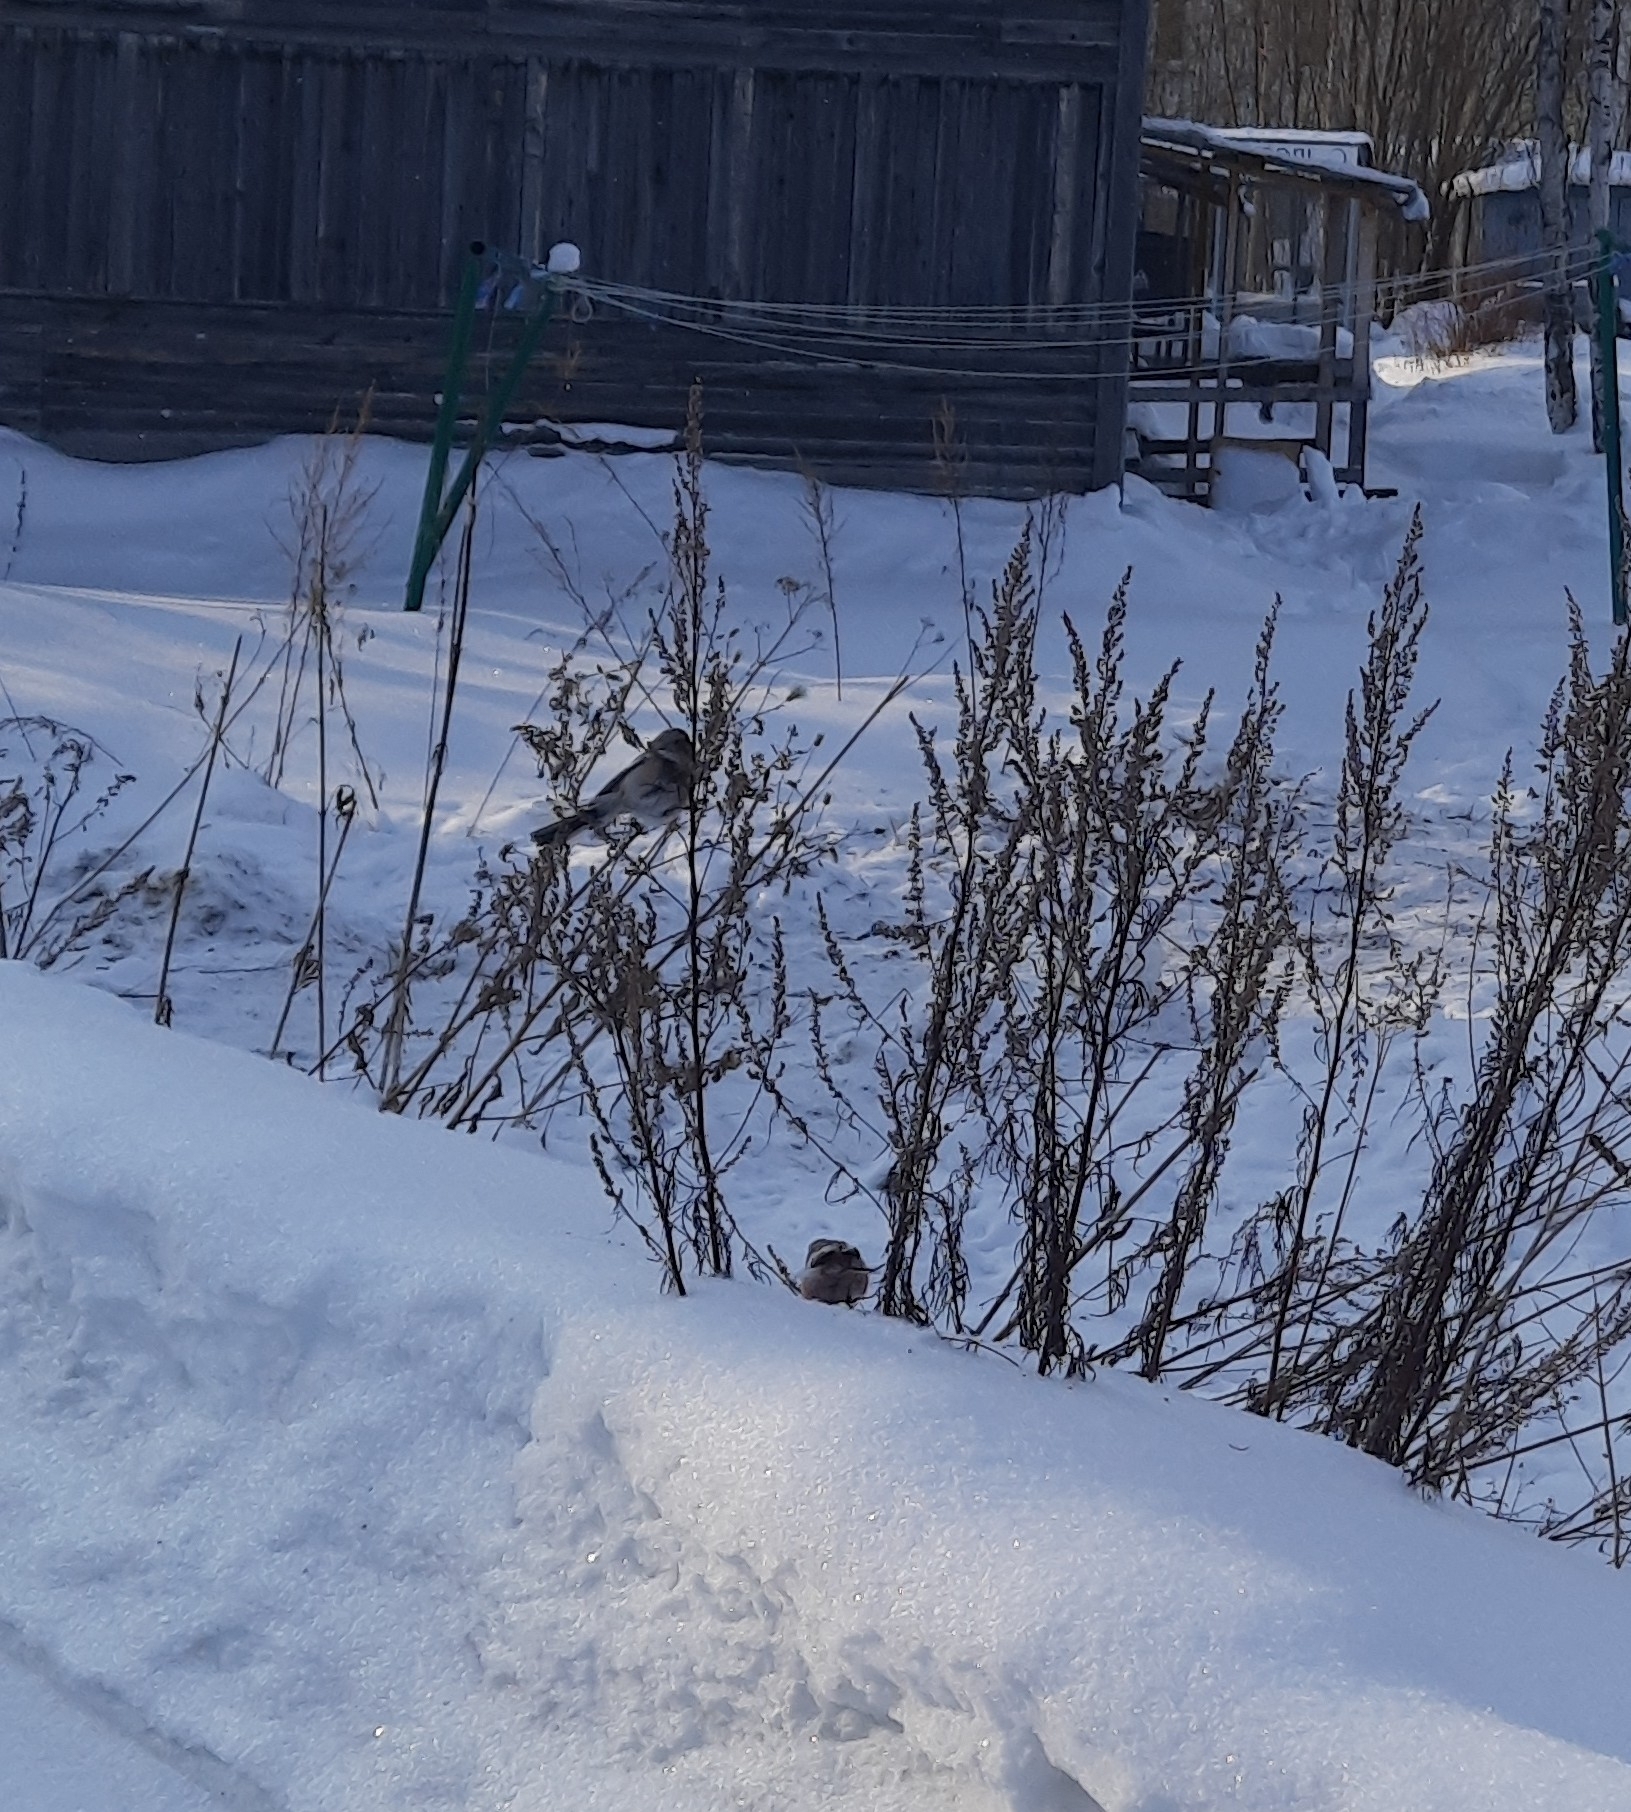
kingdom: Animalia
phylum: Chordata
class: Aves
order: Passeriformes
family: Fringillidae
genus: Carpodacus
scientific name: Carpodacus sibiricus
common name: Long-tailed rosefinch
